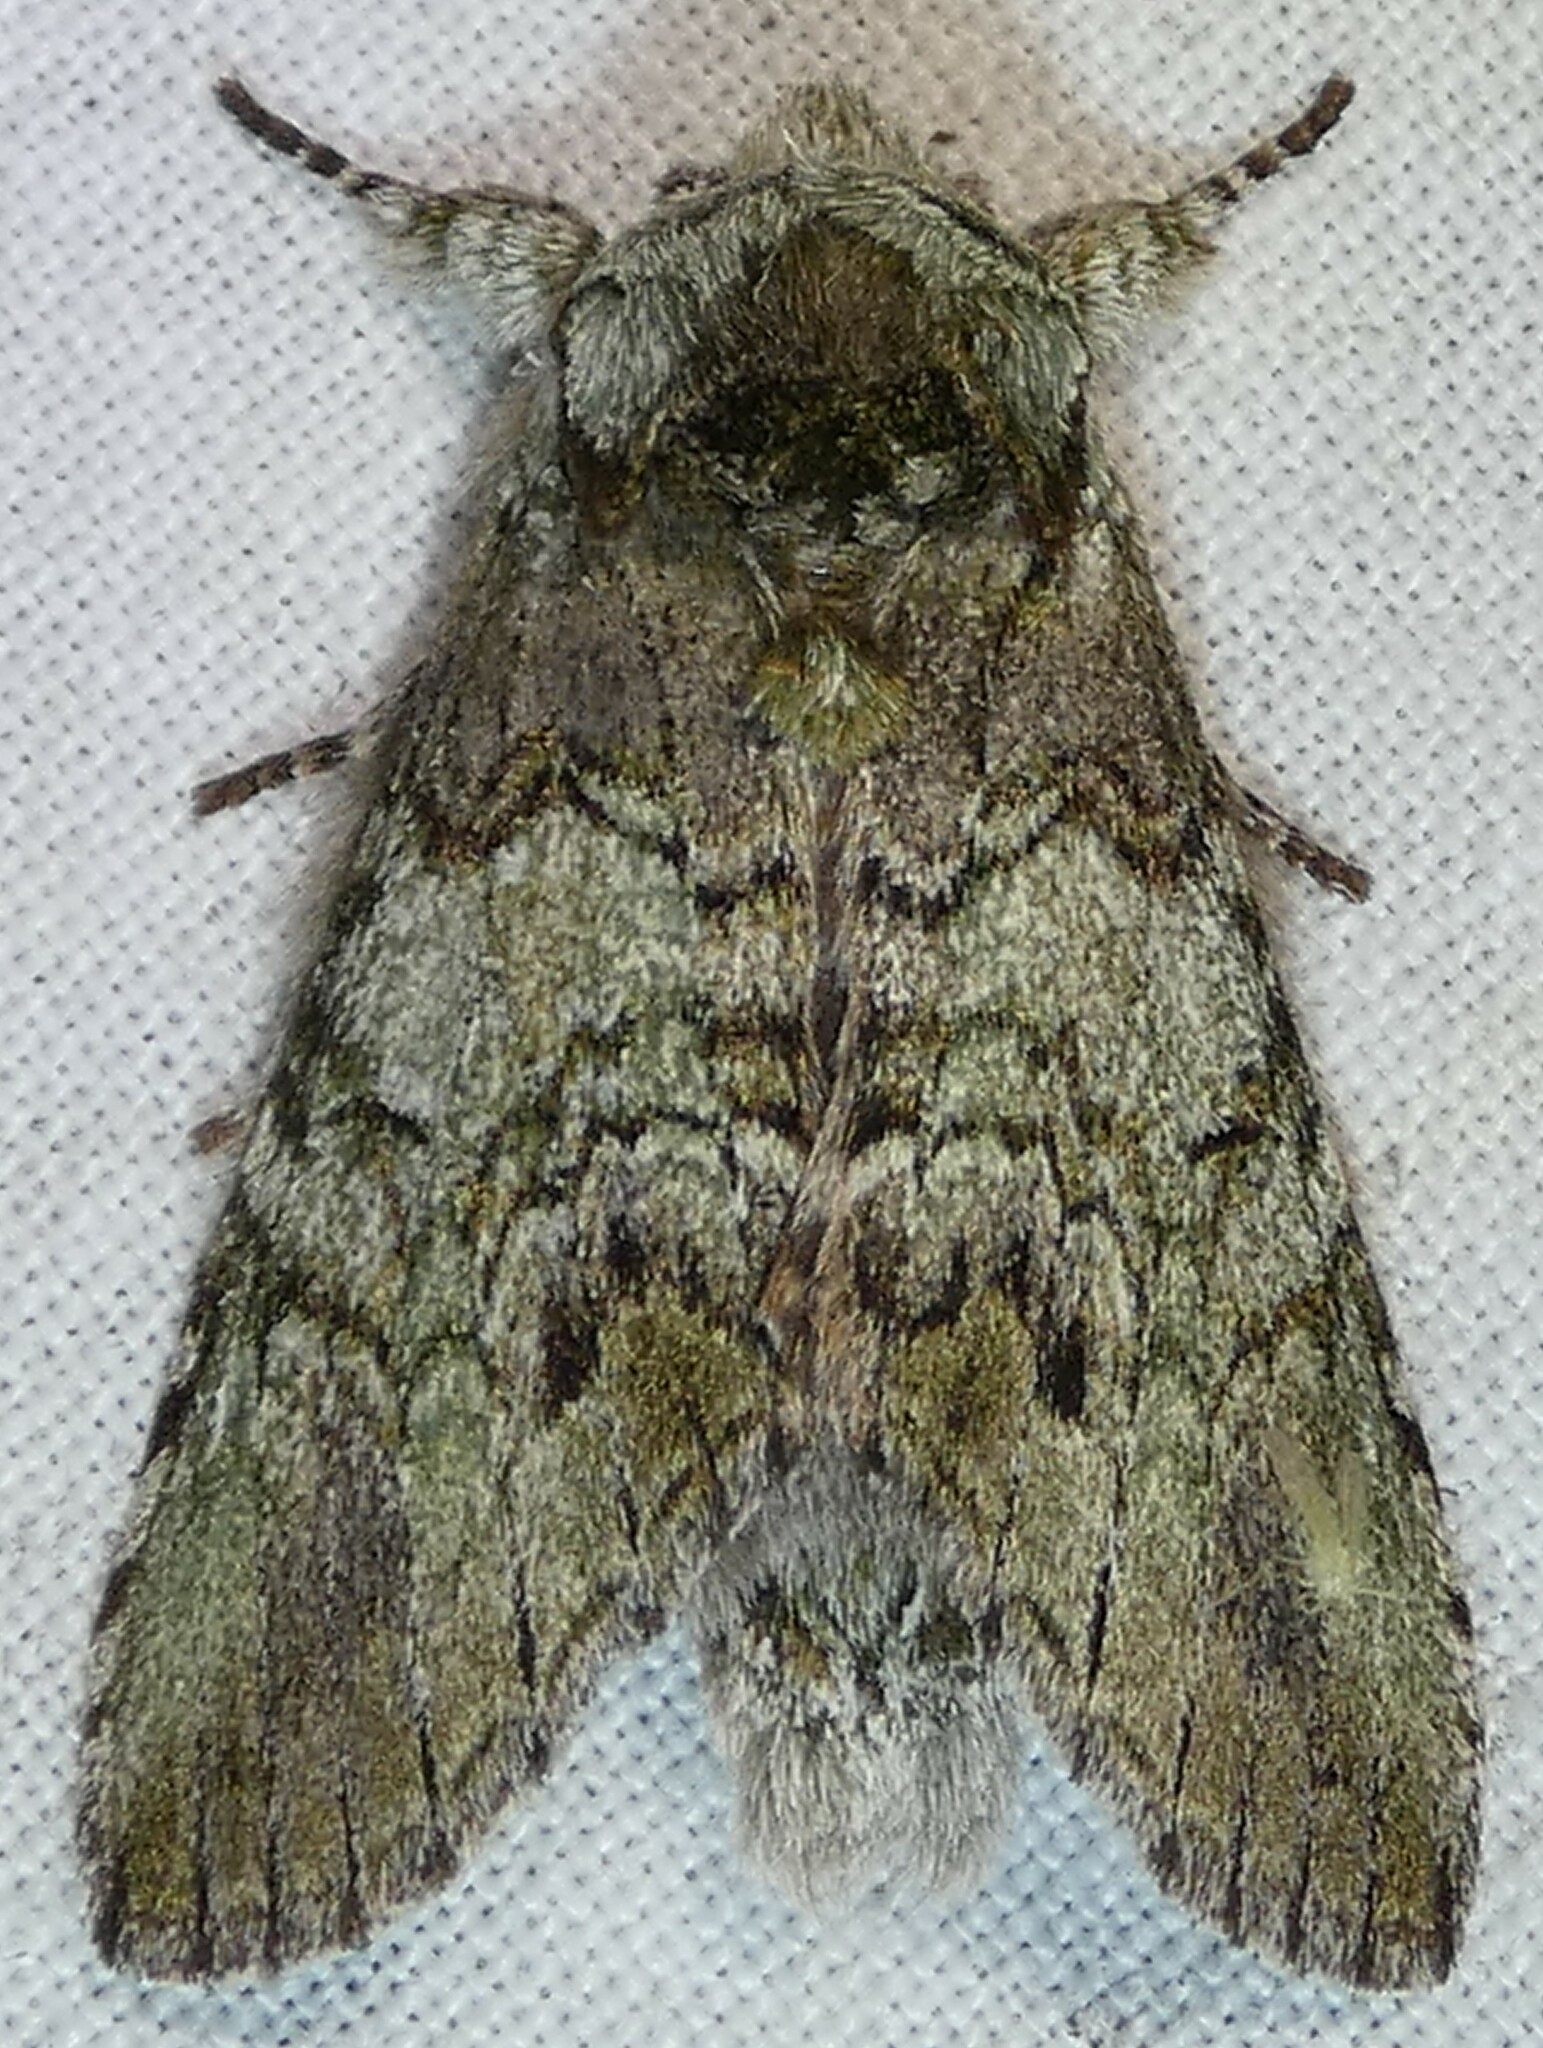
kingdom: Animalia
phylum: Arthropoda
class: Insecta
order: Lepidoptera
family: Notodontidae
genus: Macrurocampa
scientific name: Macrurocampa marthesia
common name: Mottled prominent
